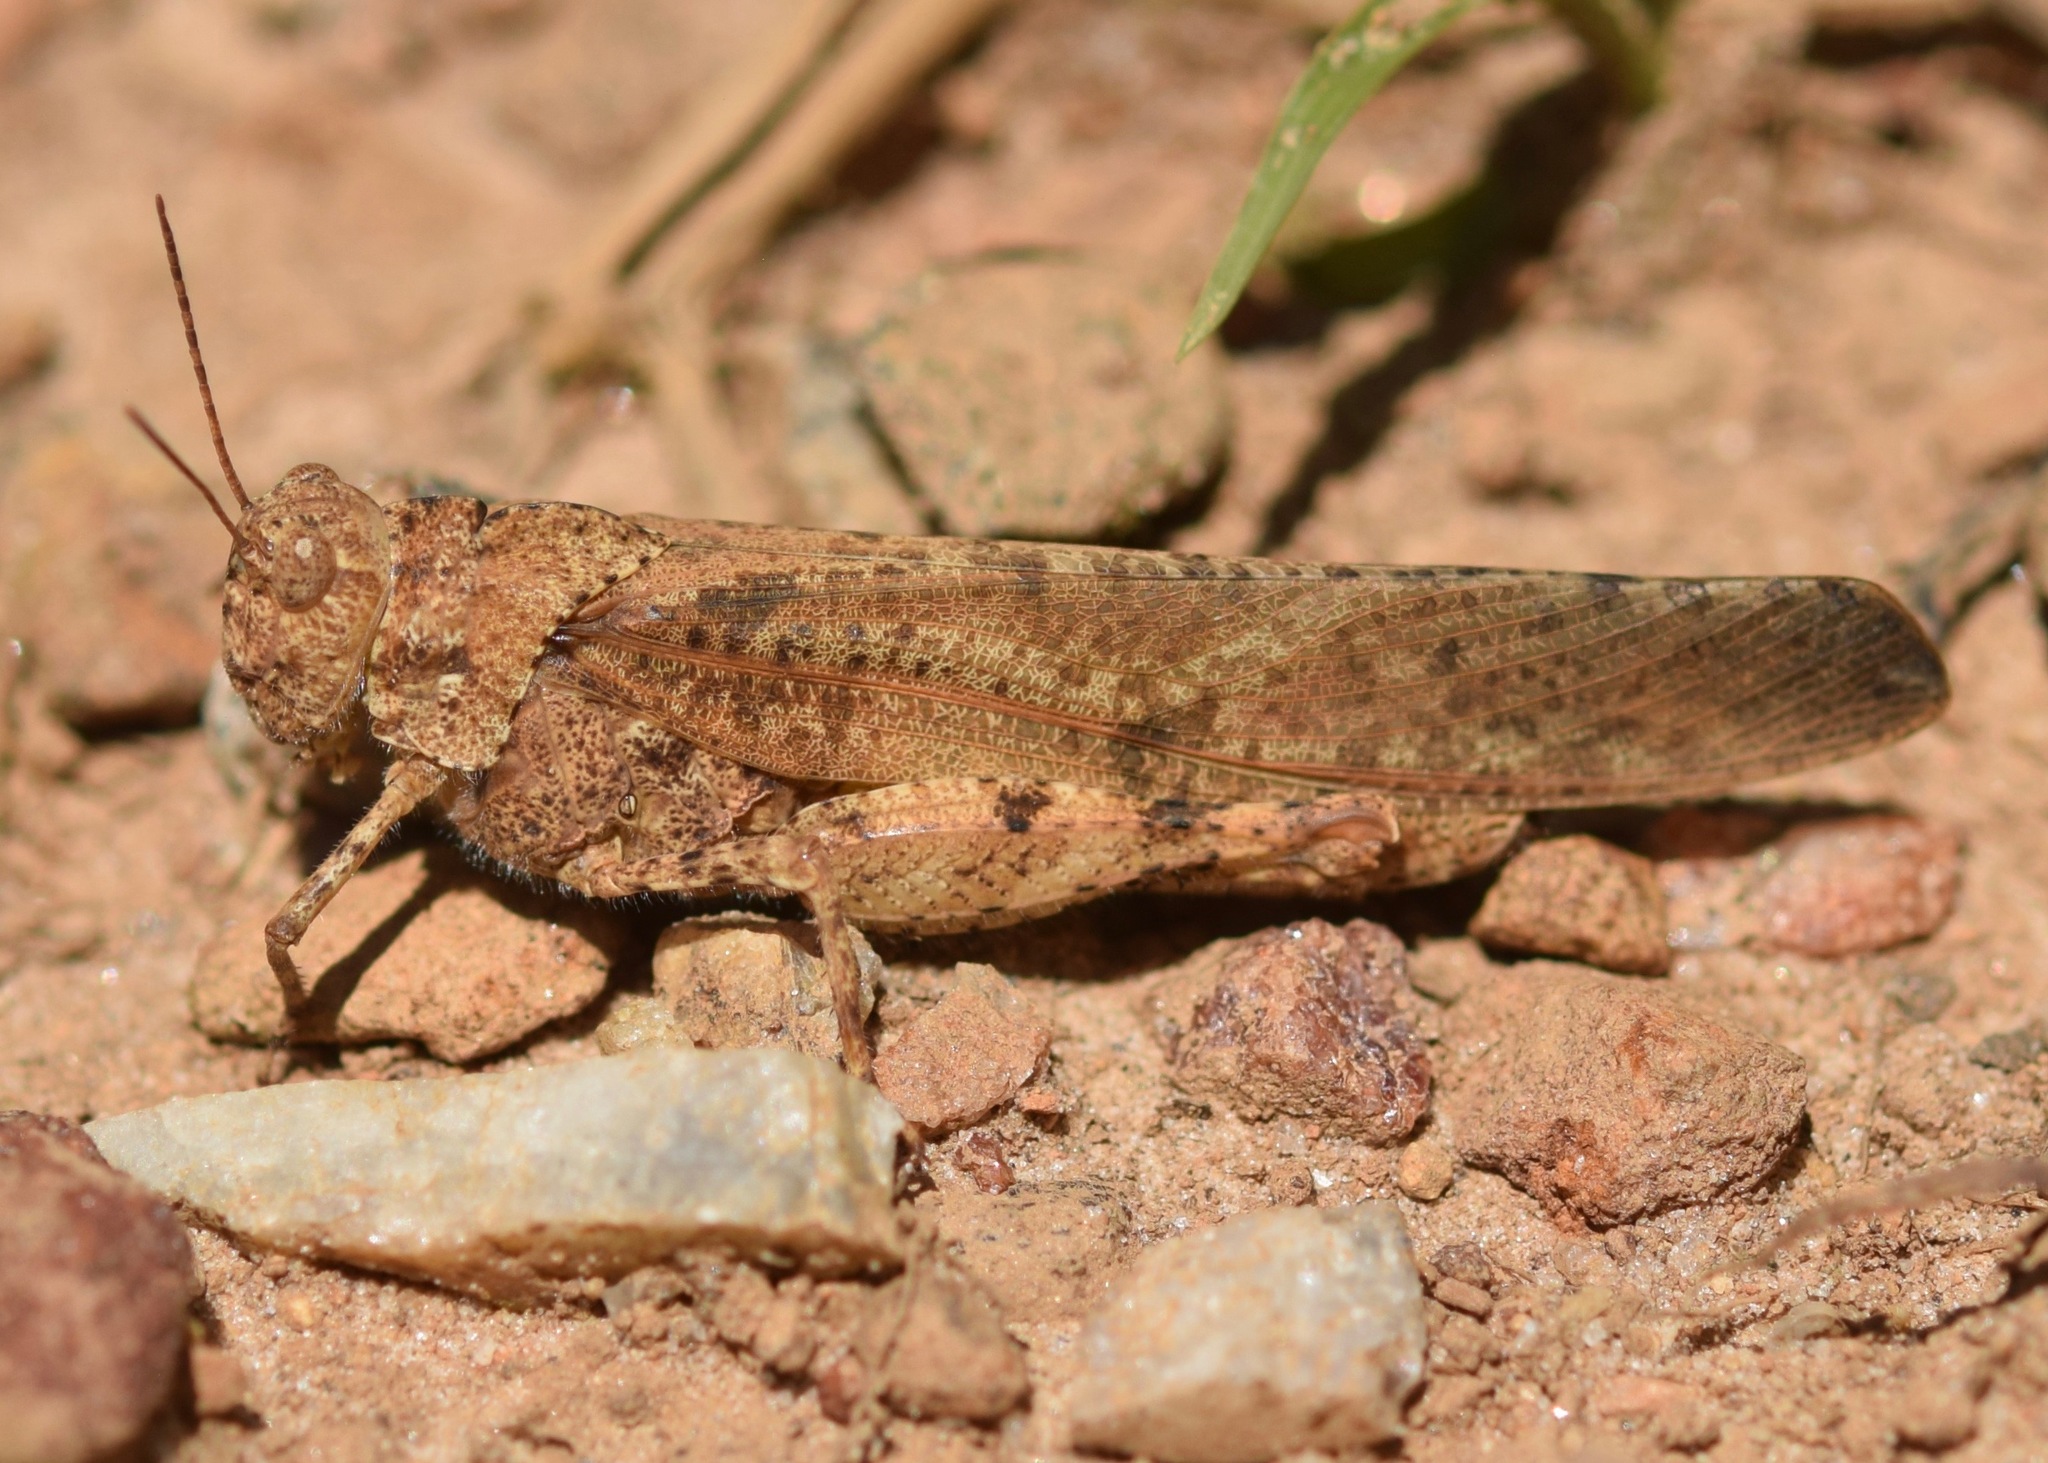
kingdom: Animalia
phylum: Arthropoda
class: Insecta
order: Orthoptera
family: Acrididae
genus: Dissosteira
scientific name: Dissosteira carolina
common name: Carolina grasshopper
